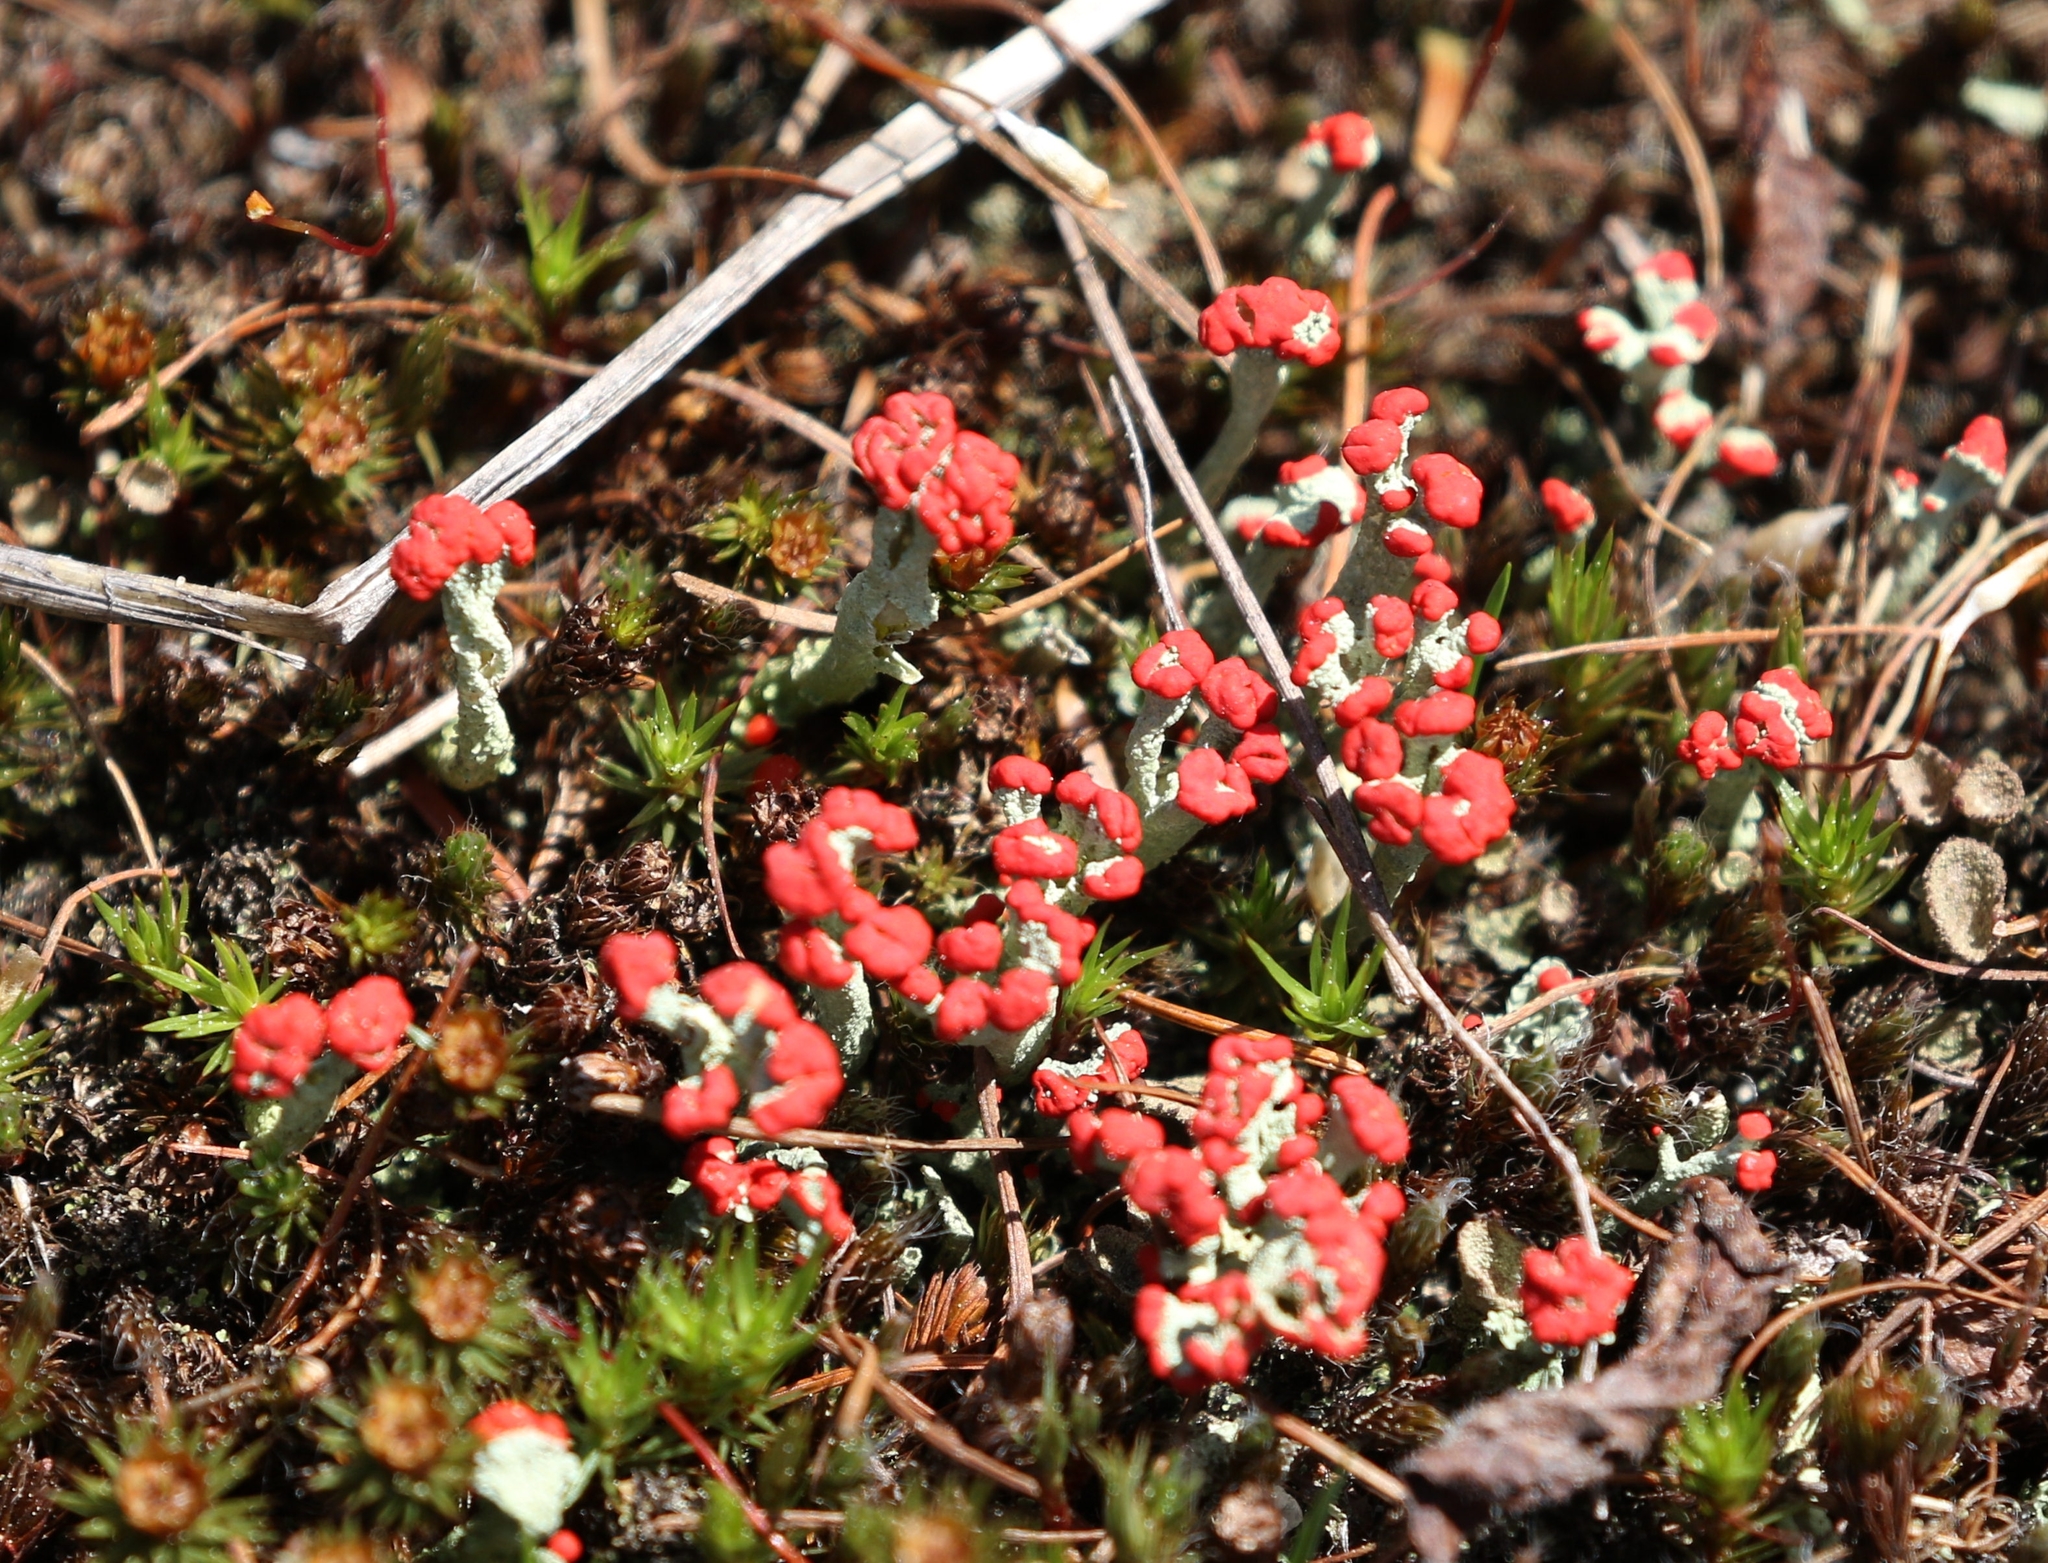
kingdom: Fungi
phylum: Ascomycota
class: Lecanoromycetes
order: Lecanorales
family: Cladoniaceae
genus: Cladonia
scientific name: Cladonia cristatella
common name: British soldier lichen
